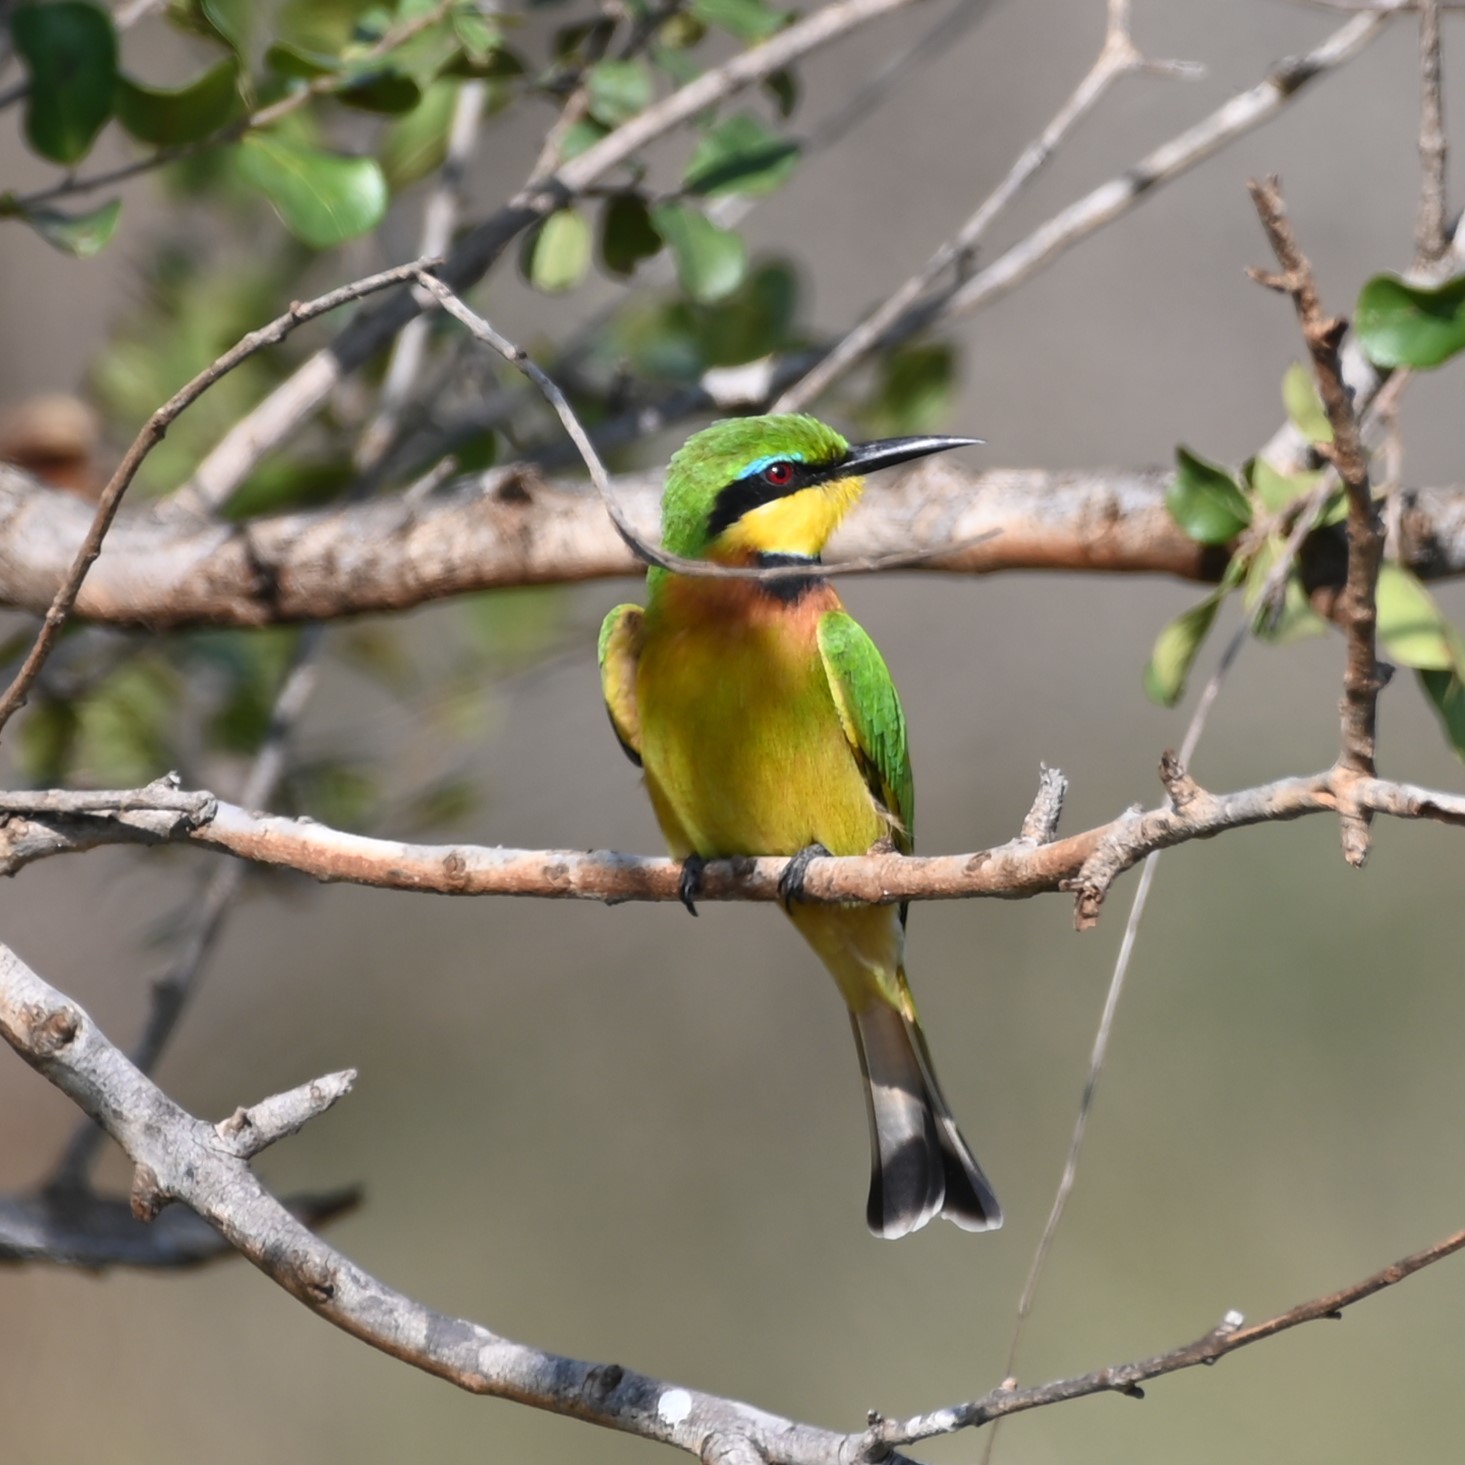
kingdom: Animalia
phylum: Chordata
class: Aves
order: Coraciiformes
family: Meropidae
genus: Merops
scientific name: Merops pusillus
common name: Little bee-eater
